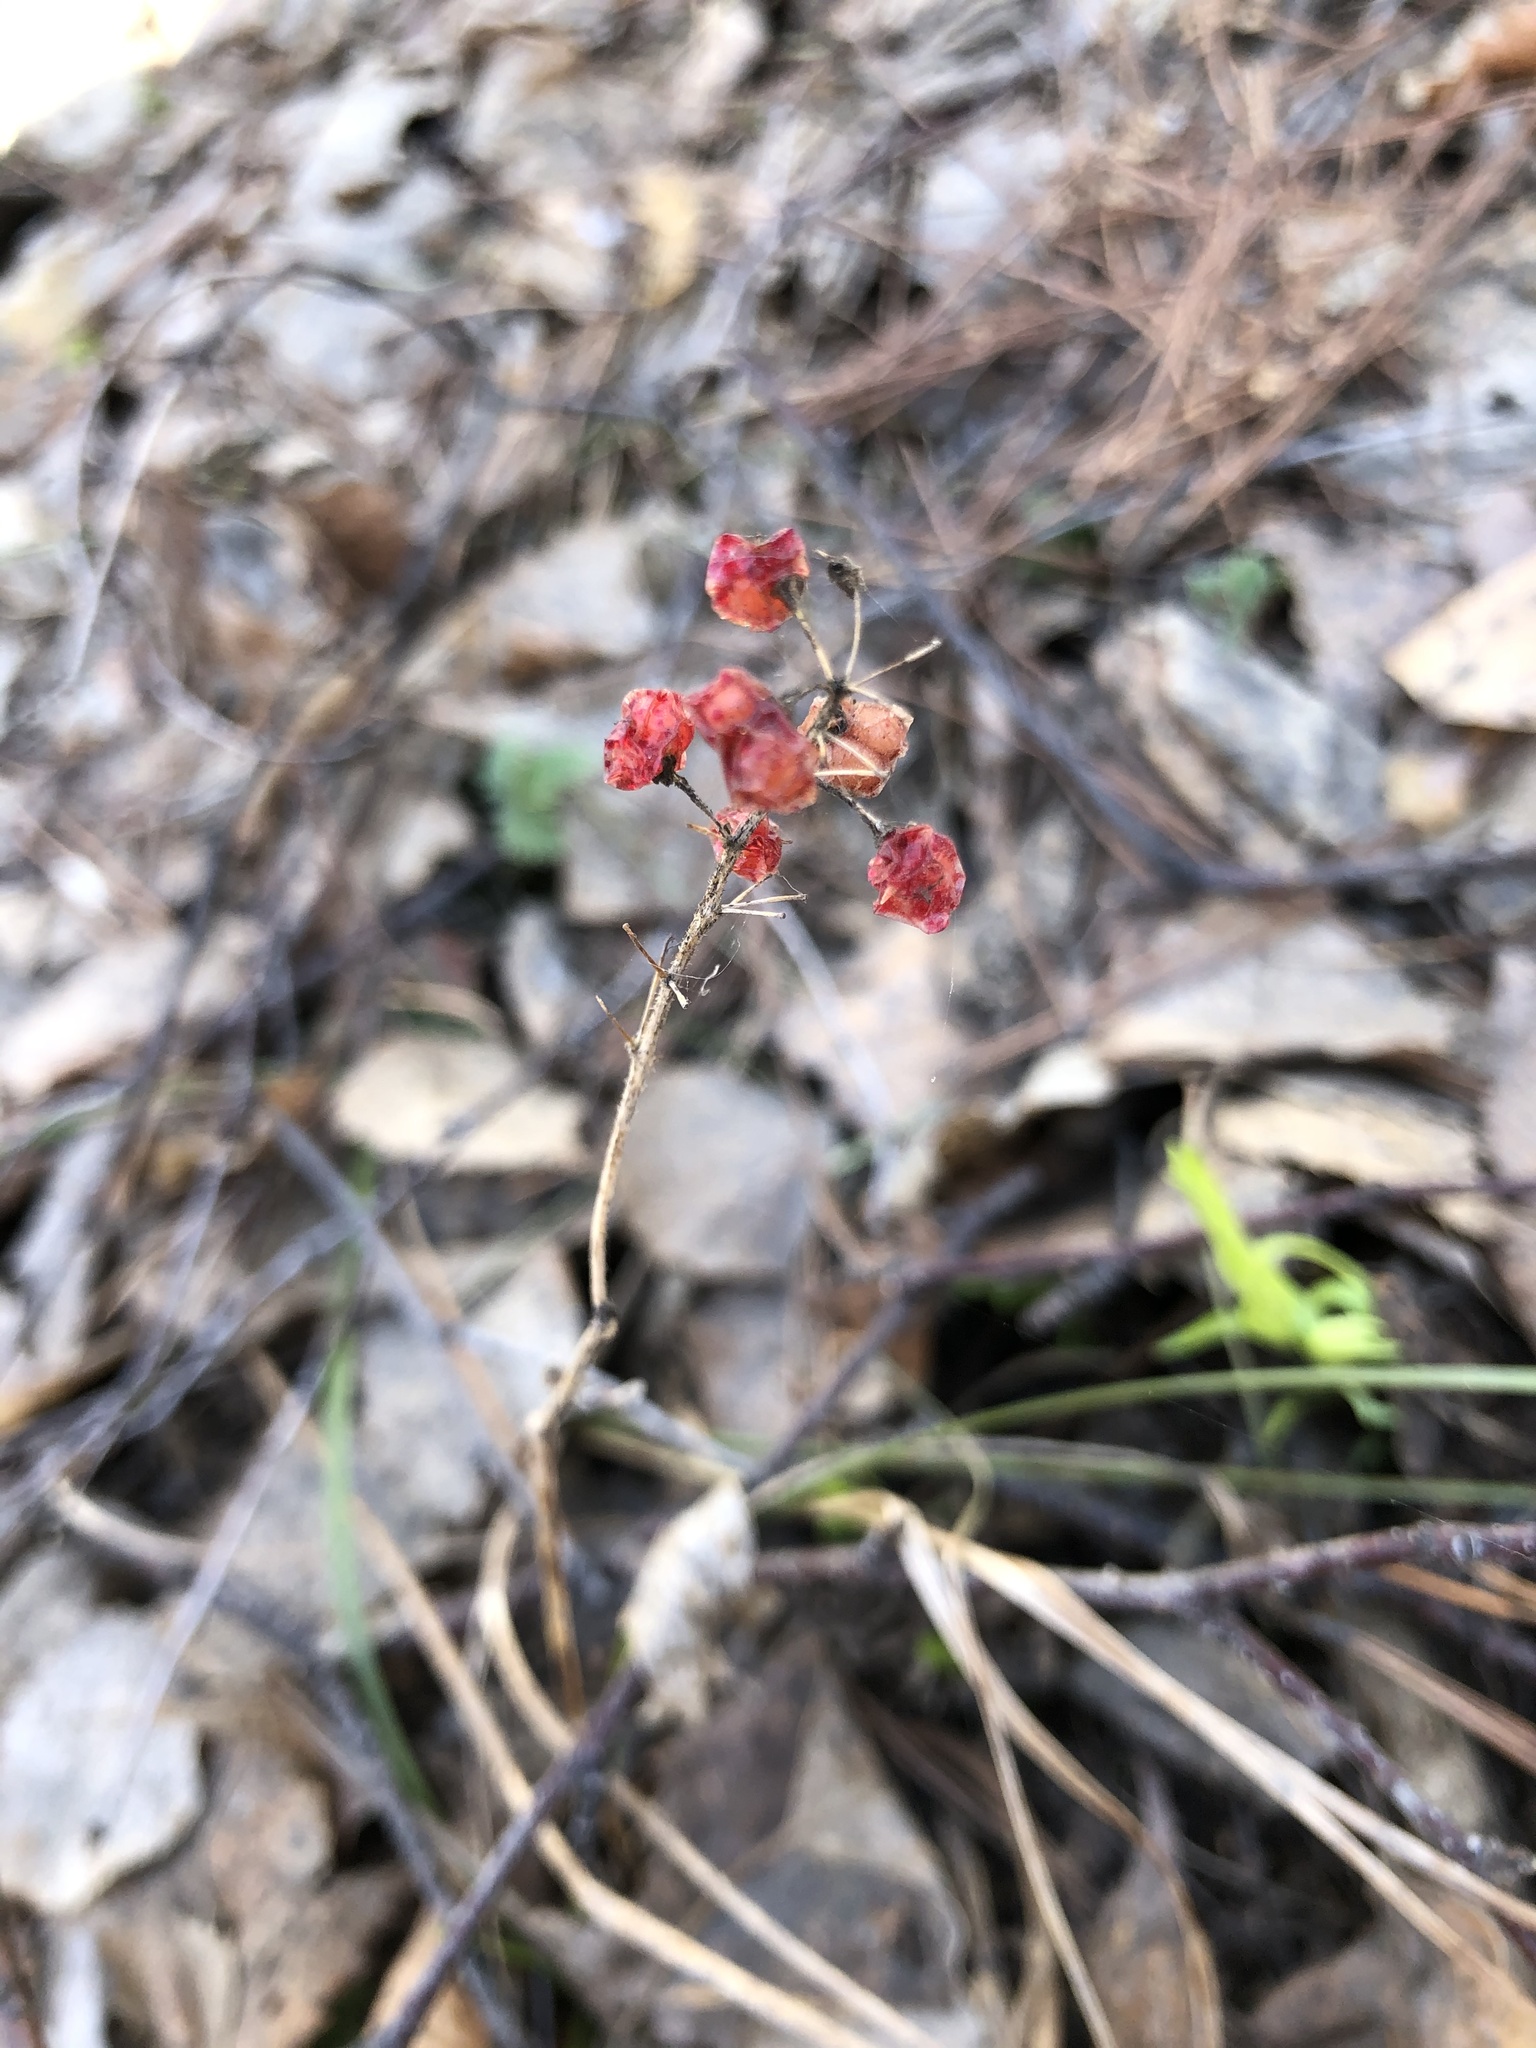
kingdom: Plantae
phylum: Tracheophyta
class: Liliopsida
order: Asparagales
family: Asparagaceae
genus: Maianthemum
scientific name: Maianthemum bifolium
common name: May lily
